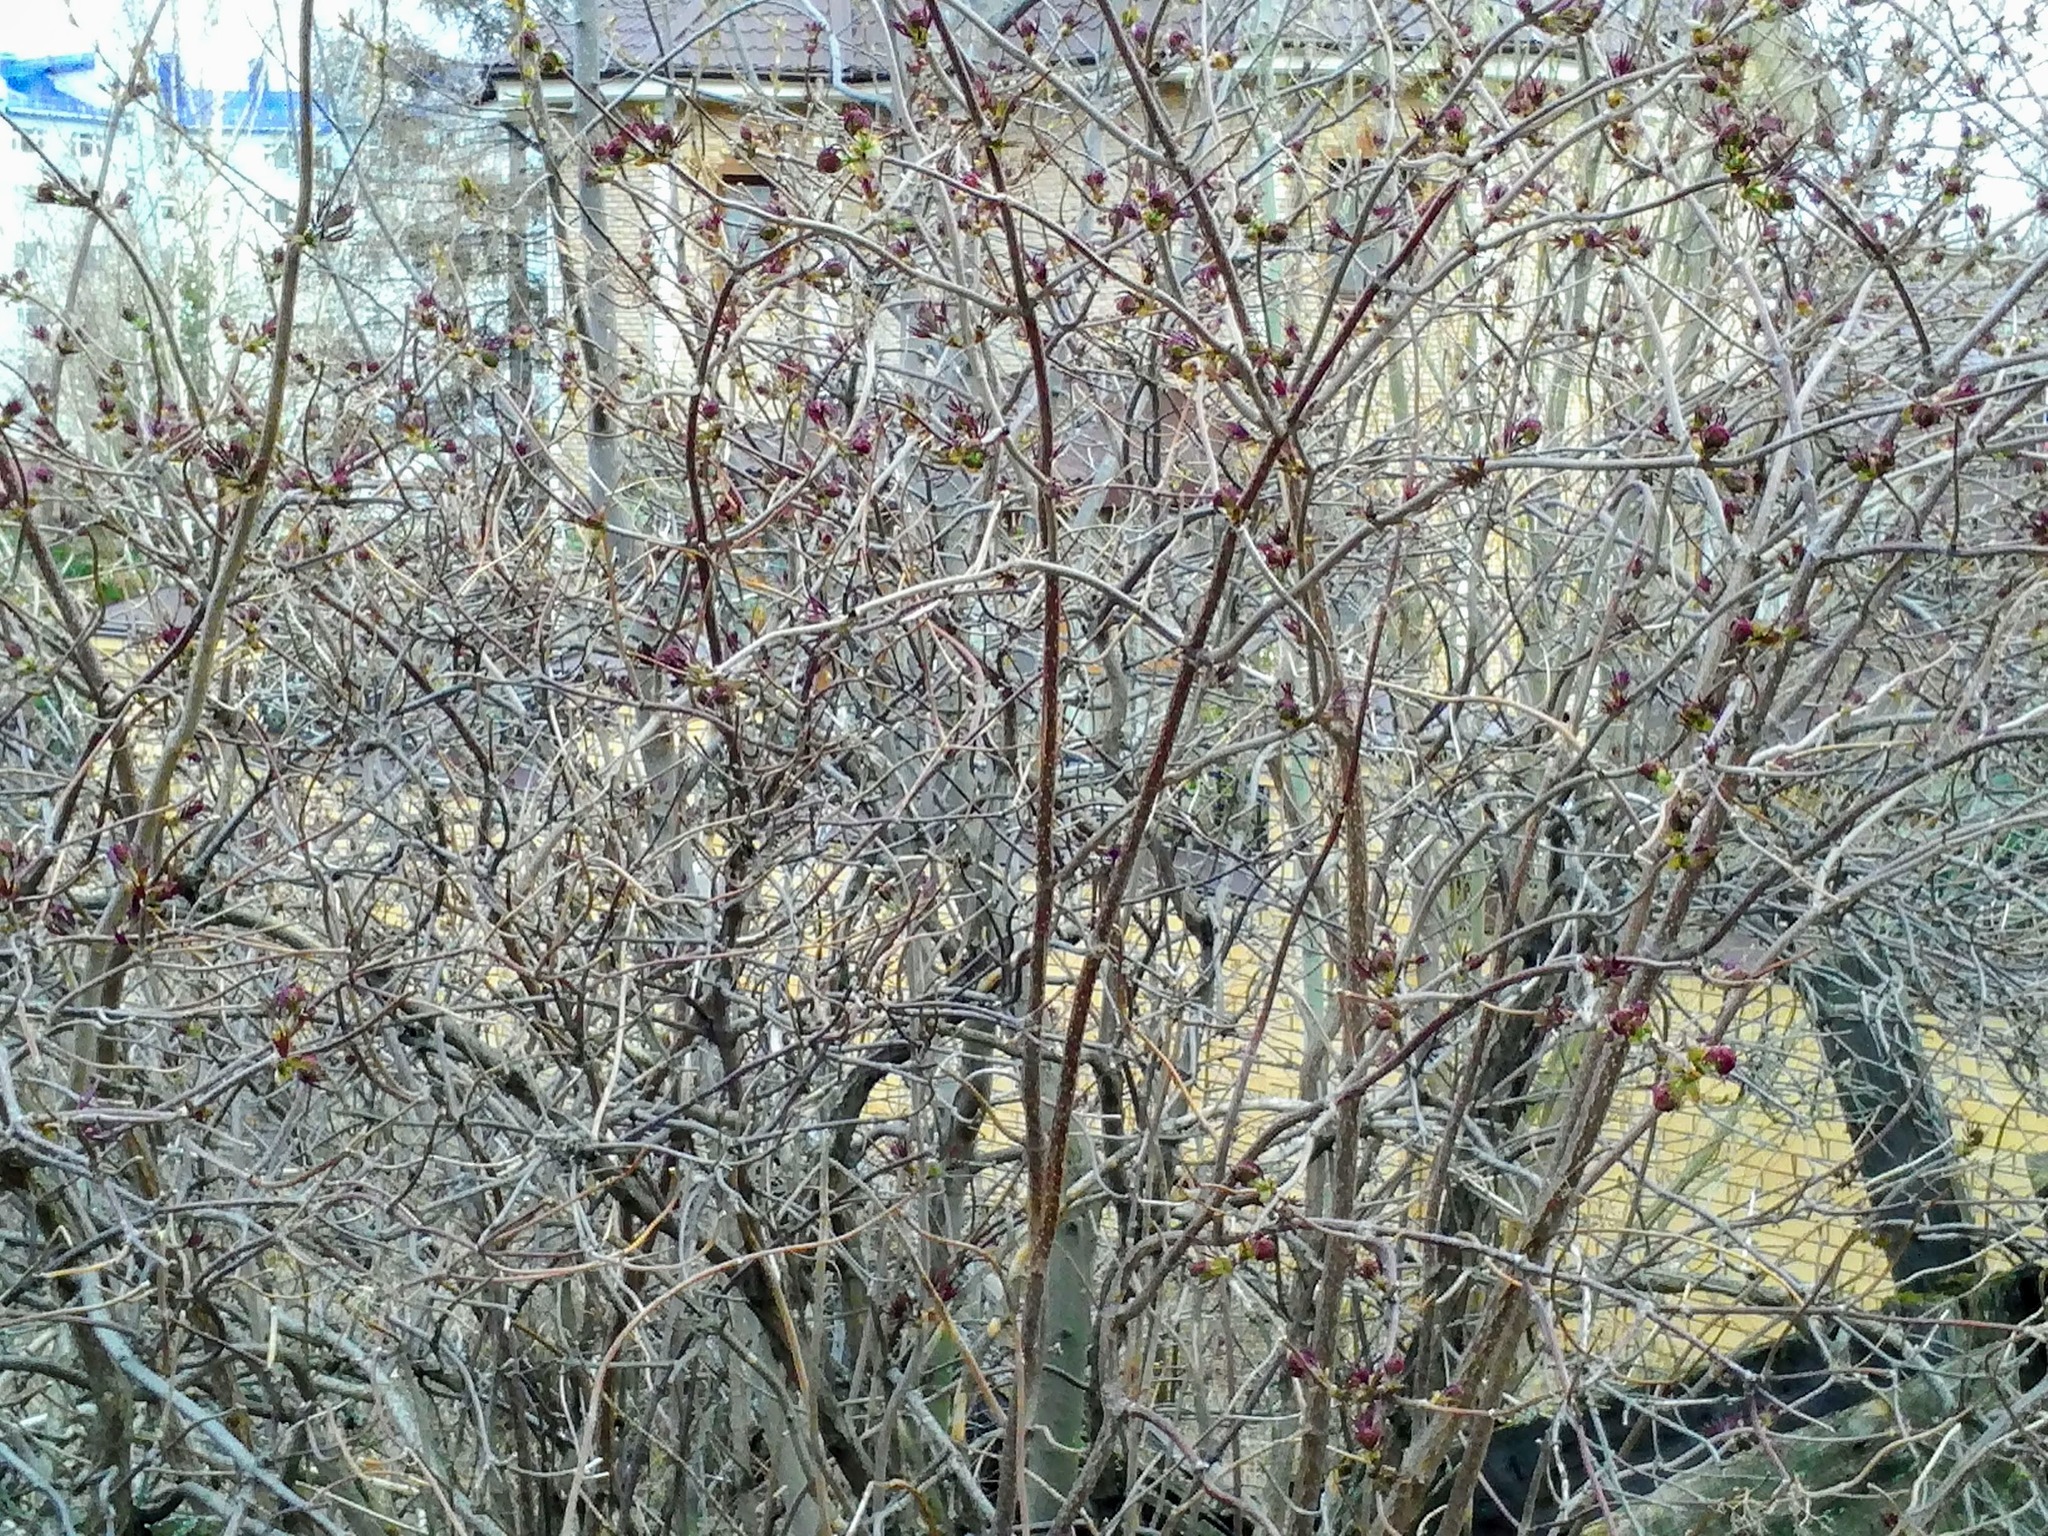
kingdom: Plantae
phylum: Tracheophyta
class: Magnoliopsida
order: Dipsacales
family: Viburnaceae
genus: Sambucus
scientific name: Sambucus sibirica
